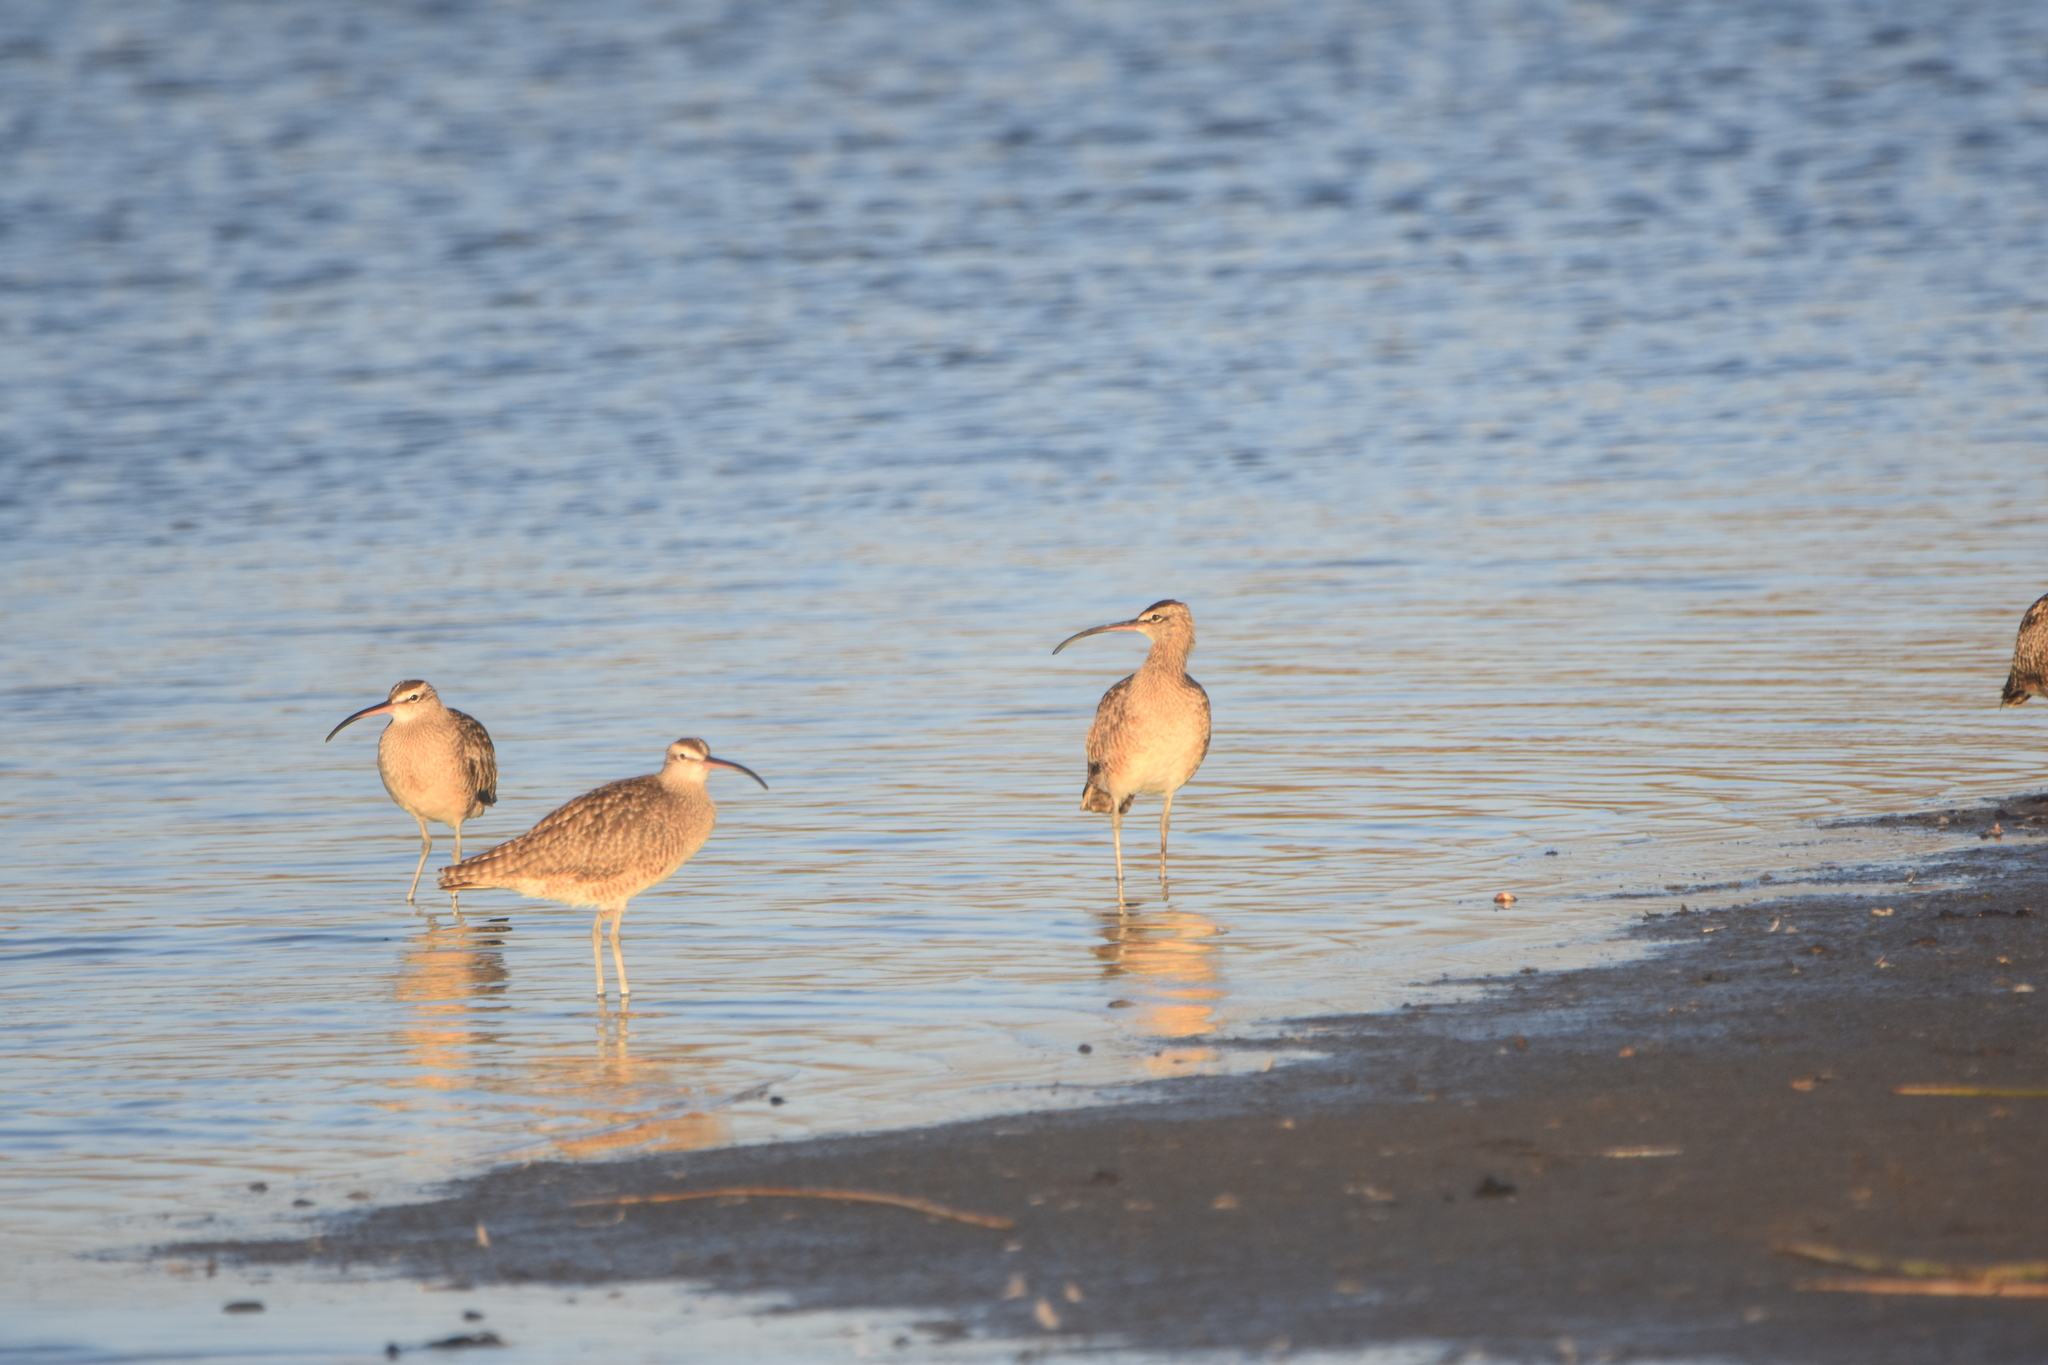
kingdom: Animalia
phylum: Chordata
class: Aves
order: Charadriiformes
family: Scolopacidae
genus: Numenius
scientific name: Numenius phaeopus
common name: Whimbrel
